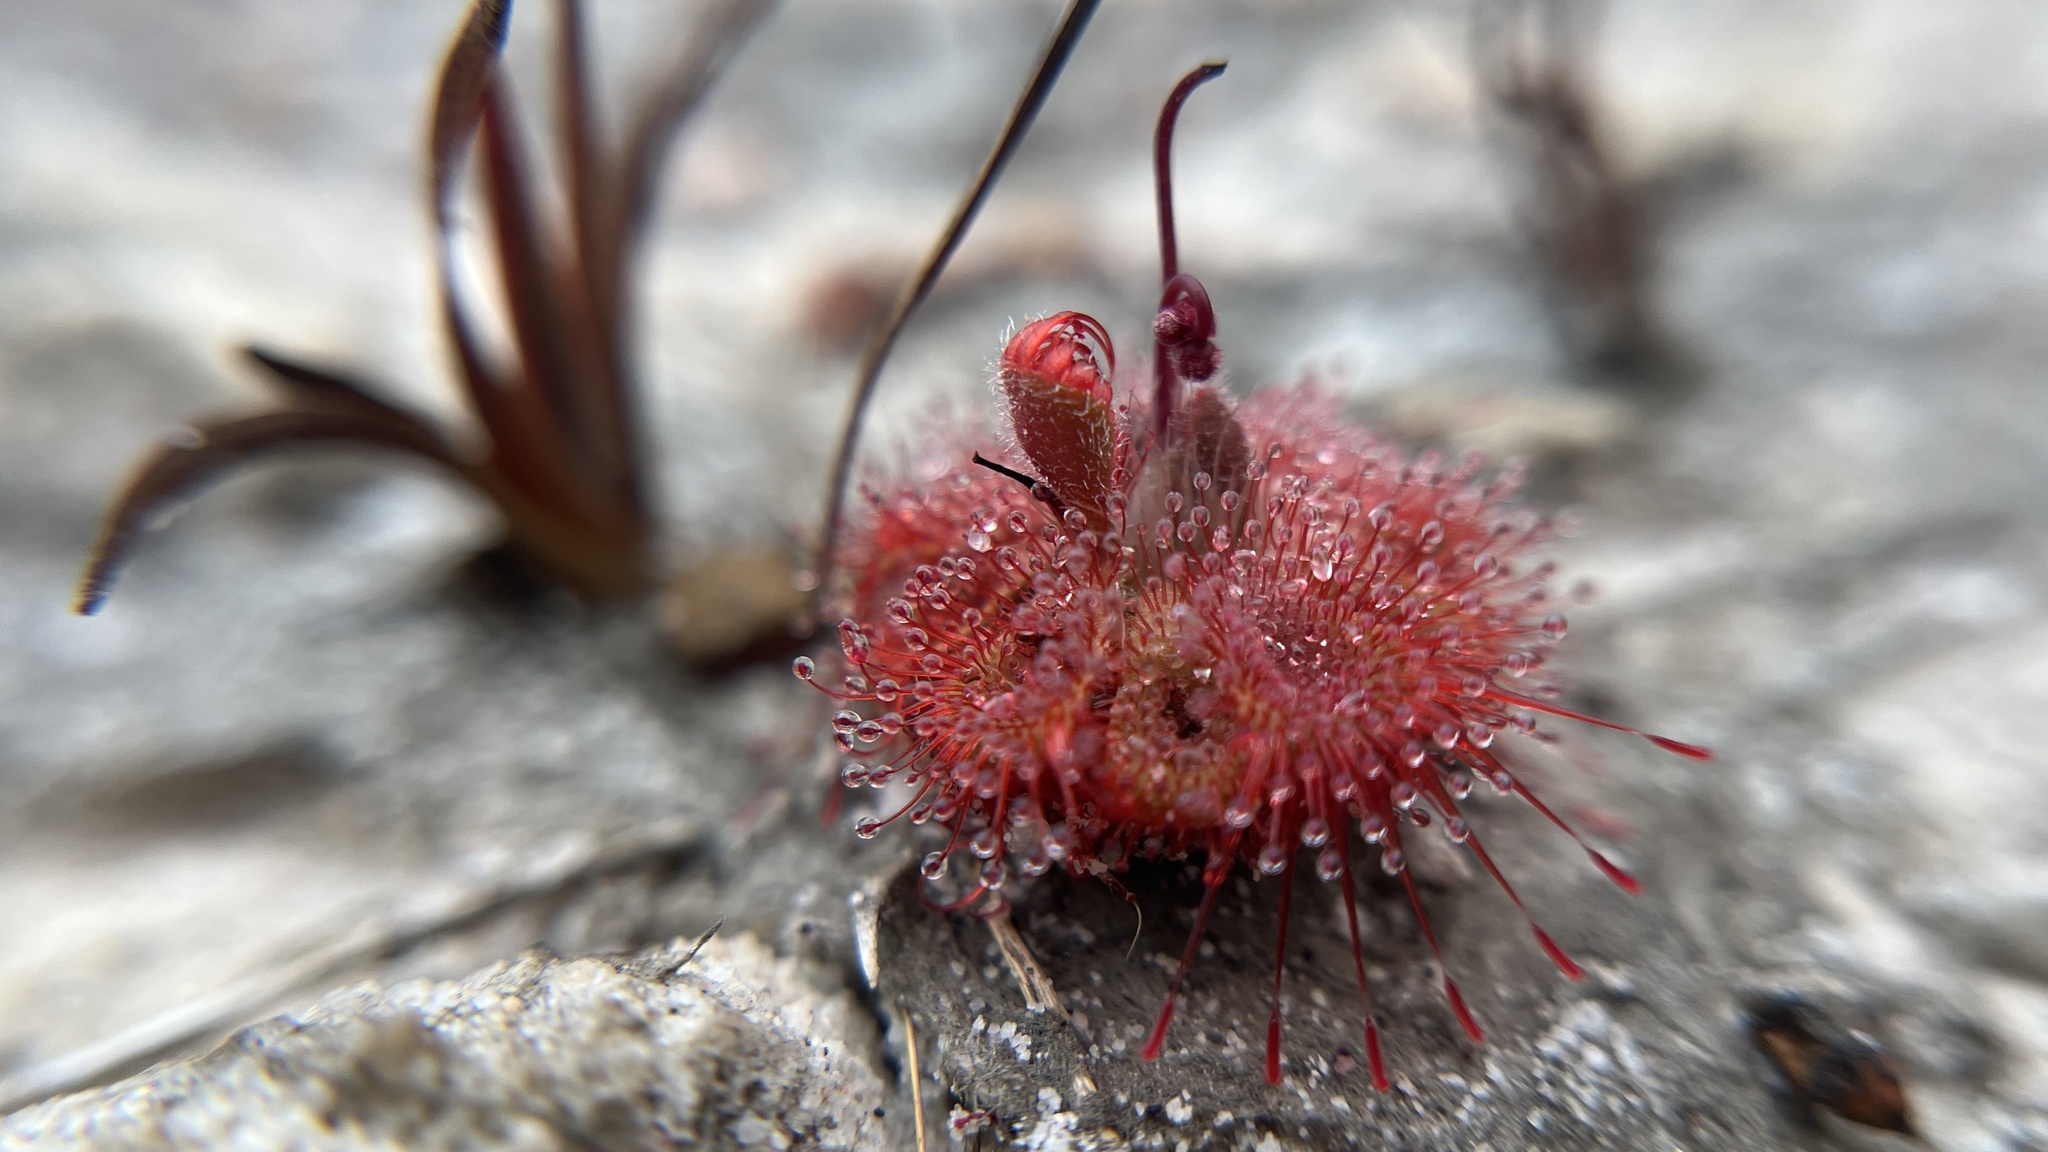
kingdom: Plantae
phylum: Tracheophyta
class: Magnoliopsida
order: Caryophyllales
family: Droseraceae
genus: Drosera
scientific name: Drosera spatulata
